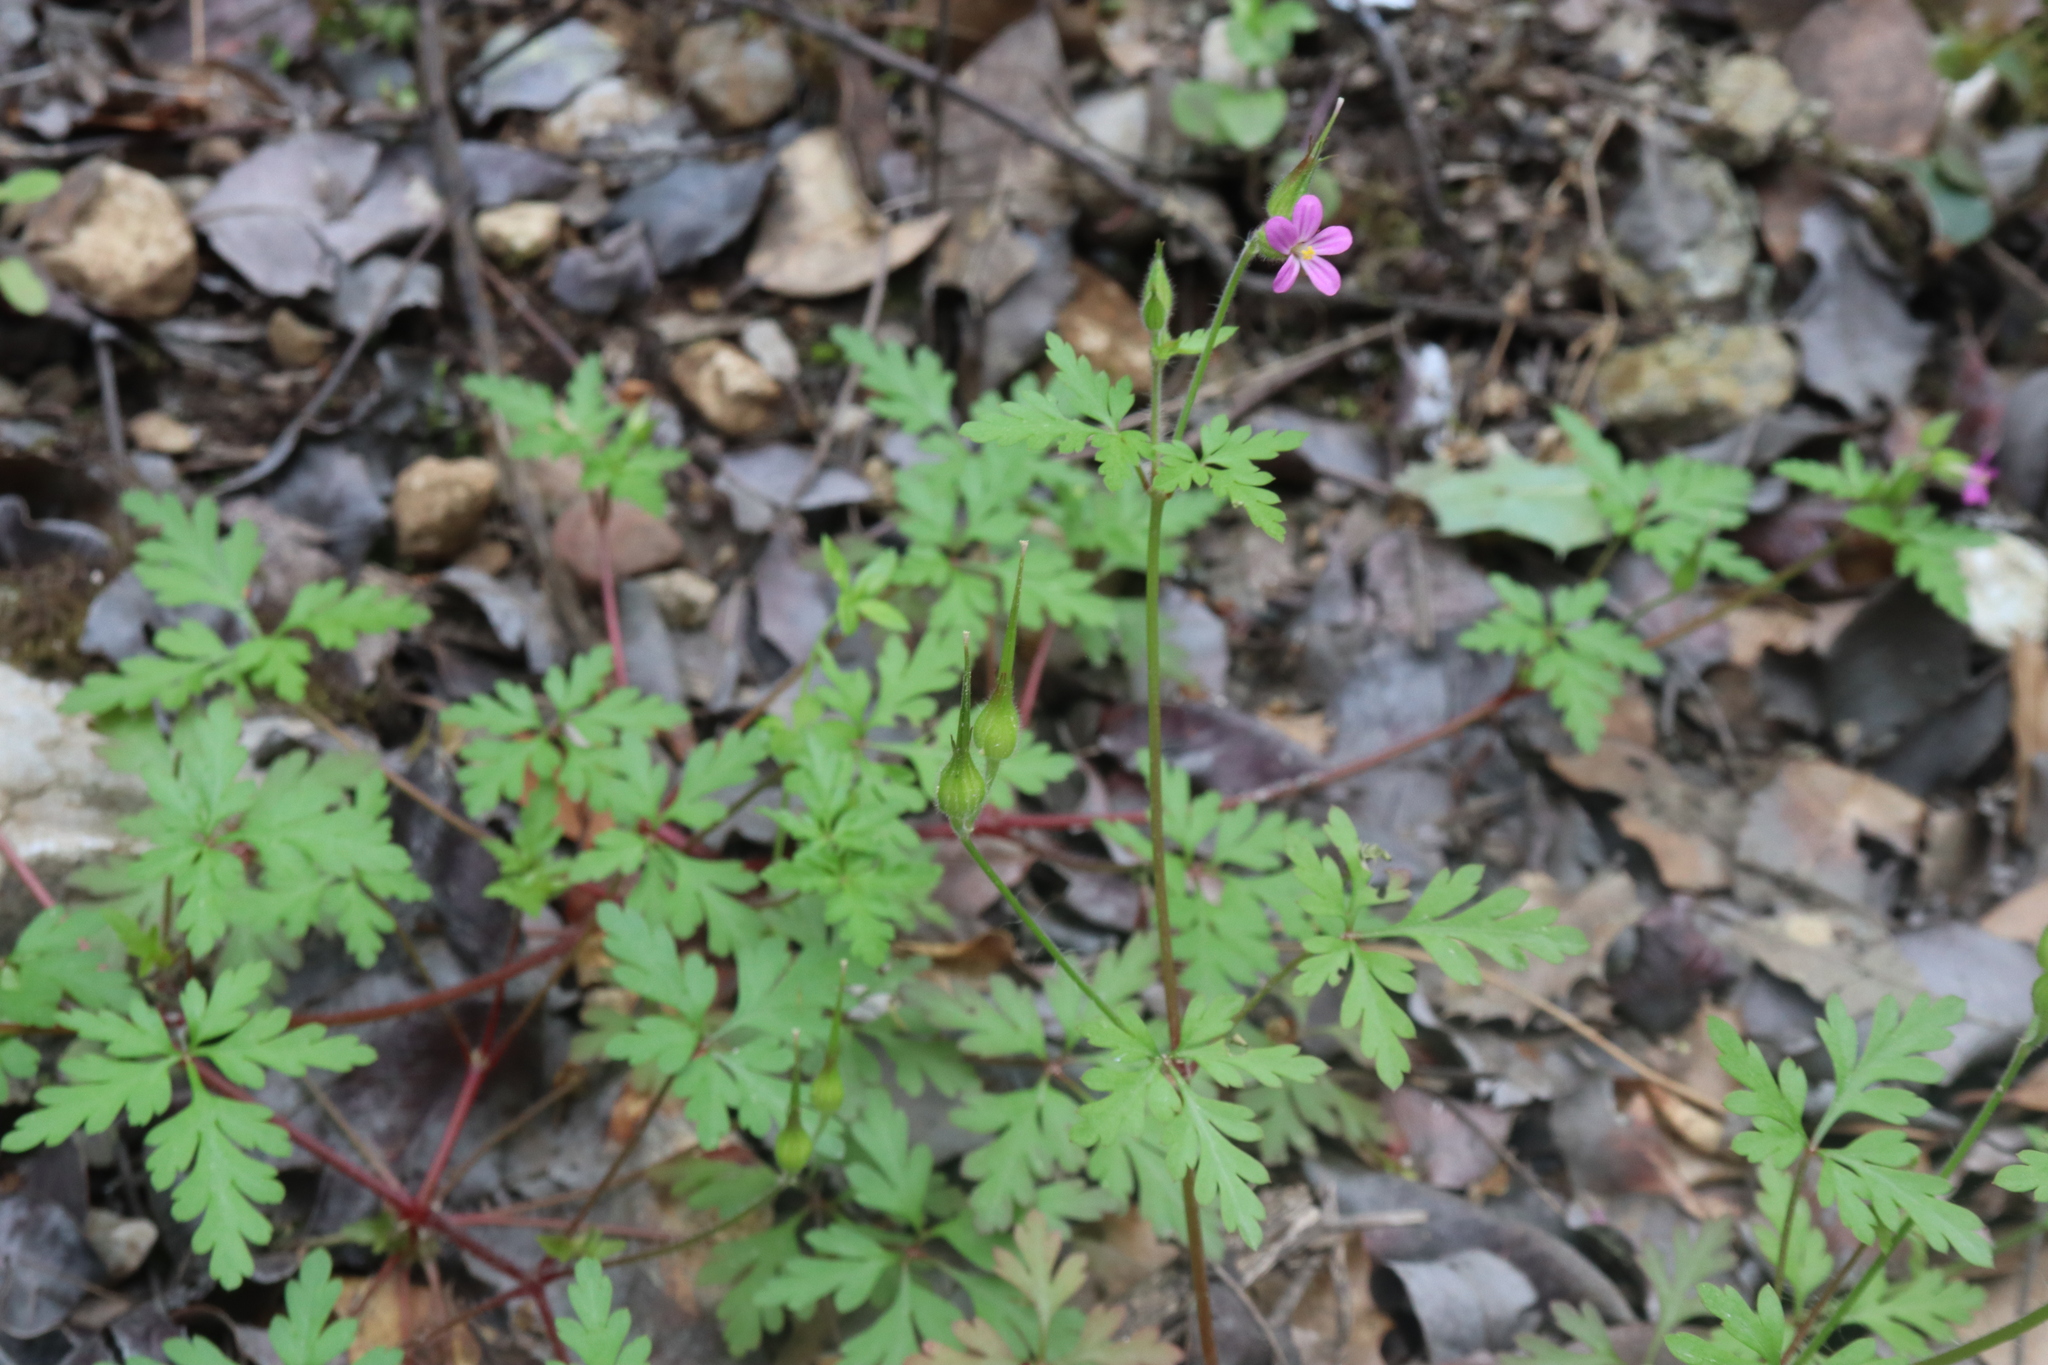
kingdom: Plantae
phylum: Tracheophyta
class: Magnoliopsida
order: Geraniales
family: Geraniaceae
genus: Geranium
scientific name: Geranium purpureum
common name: Little-robin
